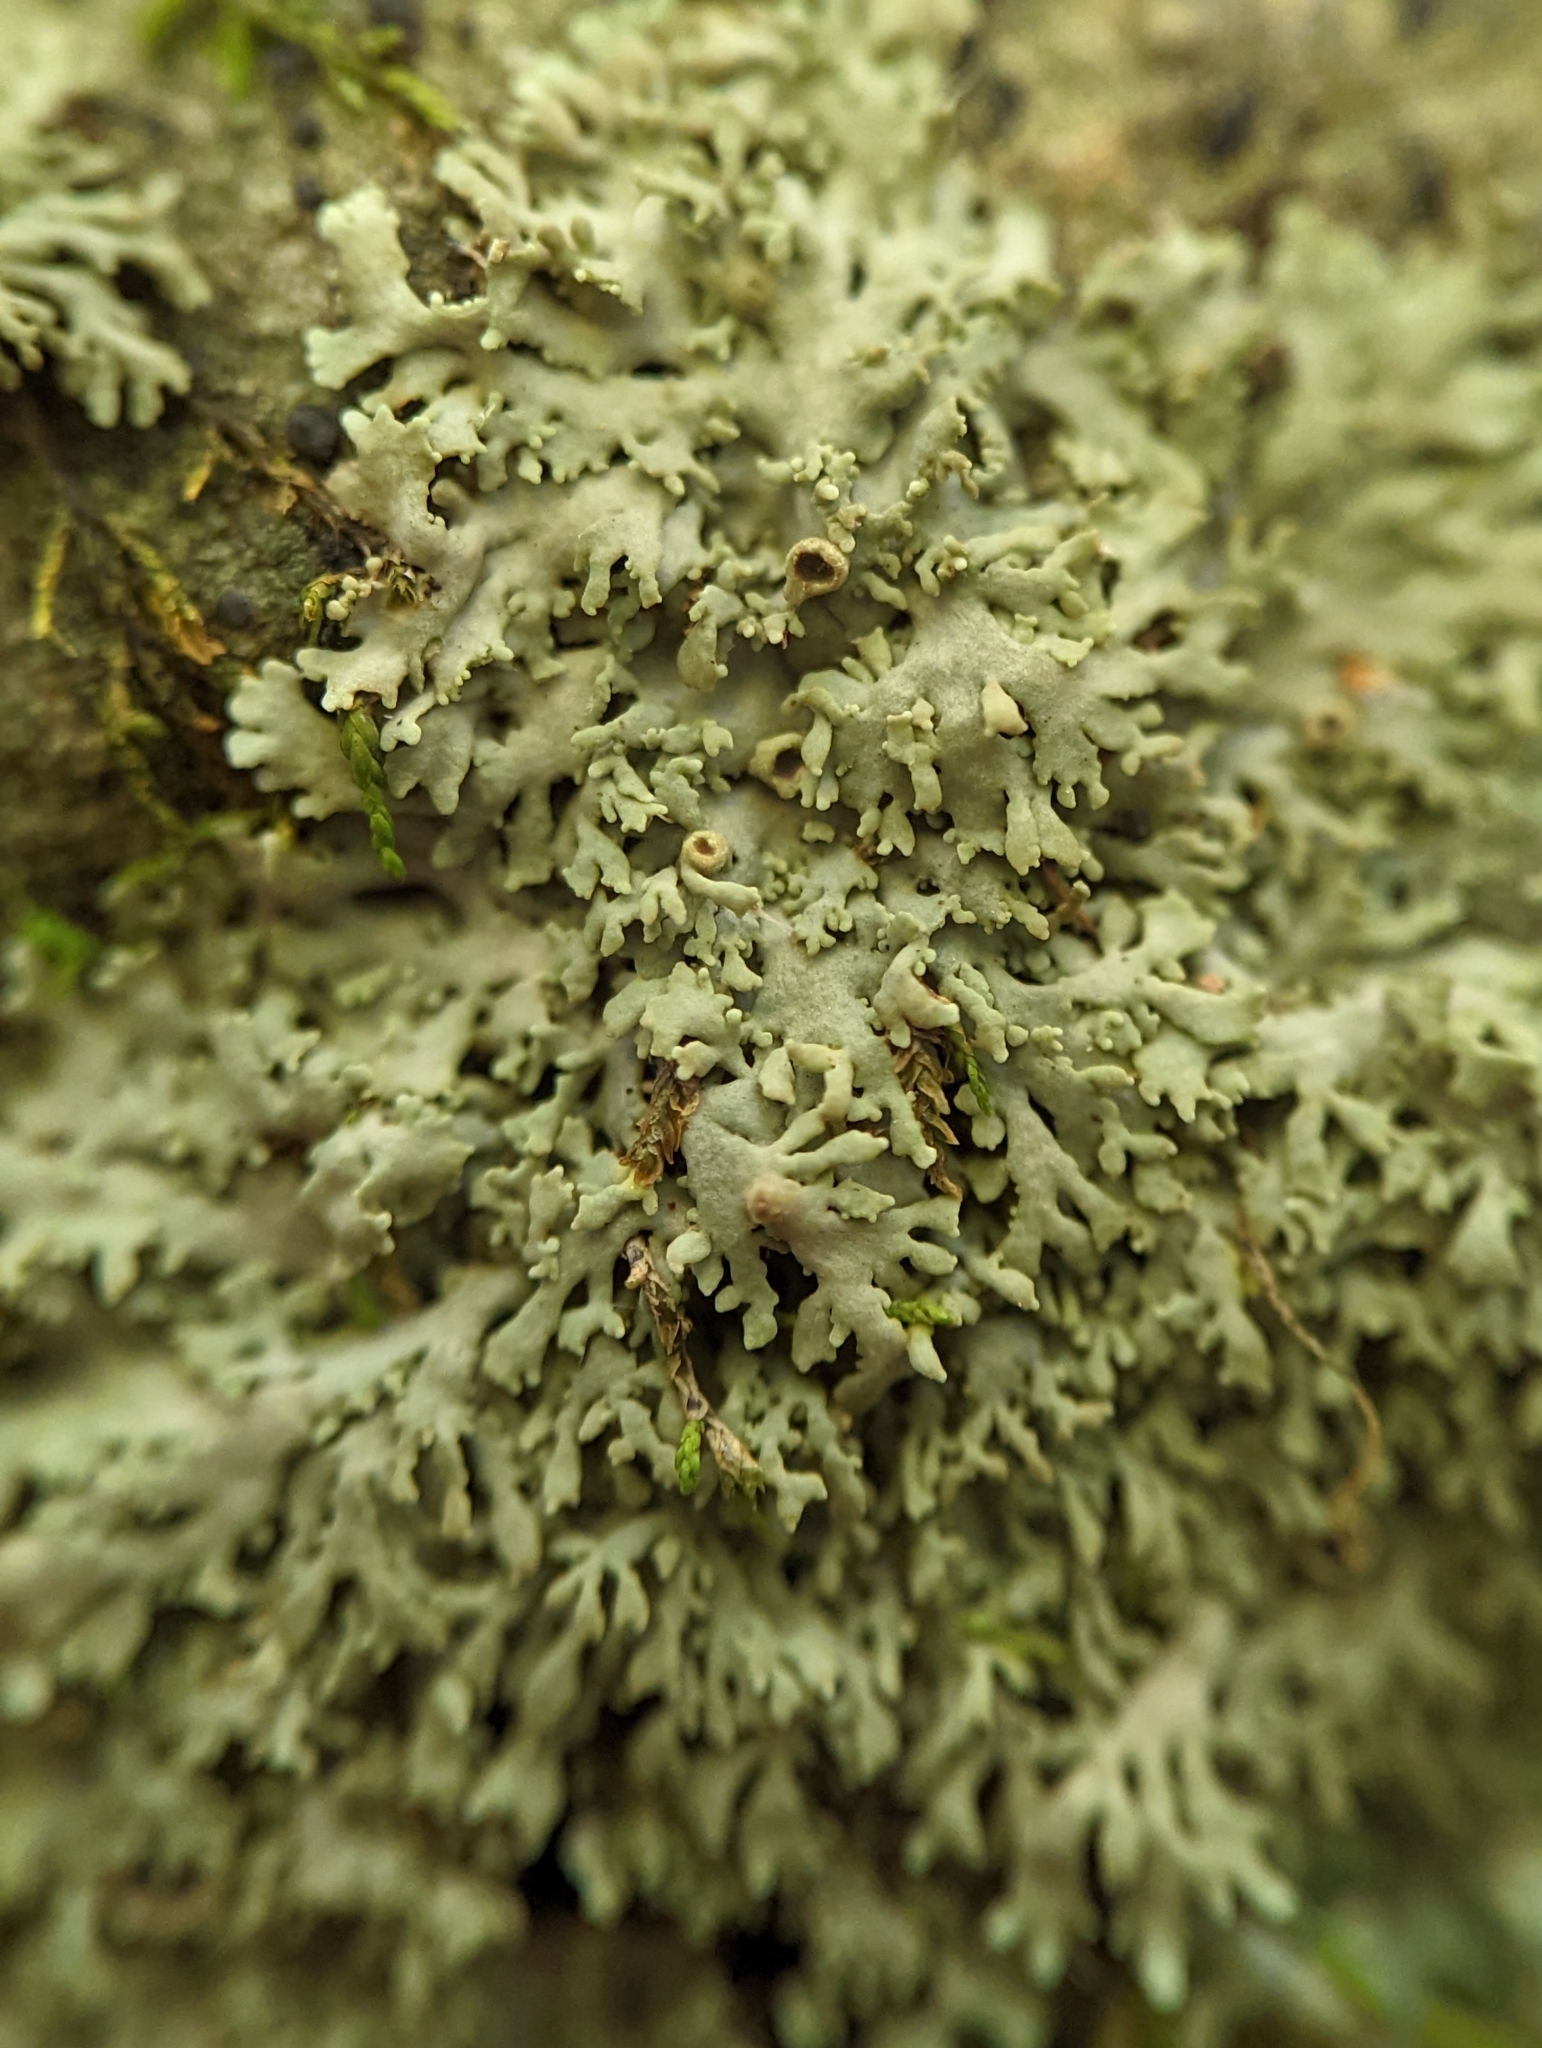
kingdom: Fungi
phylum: Ascomycota
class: Lecanoromycetes
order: Caliciales
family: Physciaceae
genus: Kurokawia
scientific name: Kurokawia palmulata
